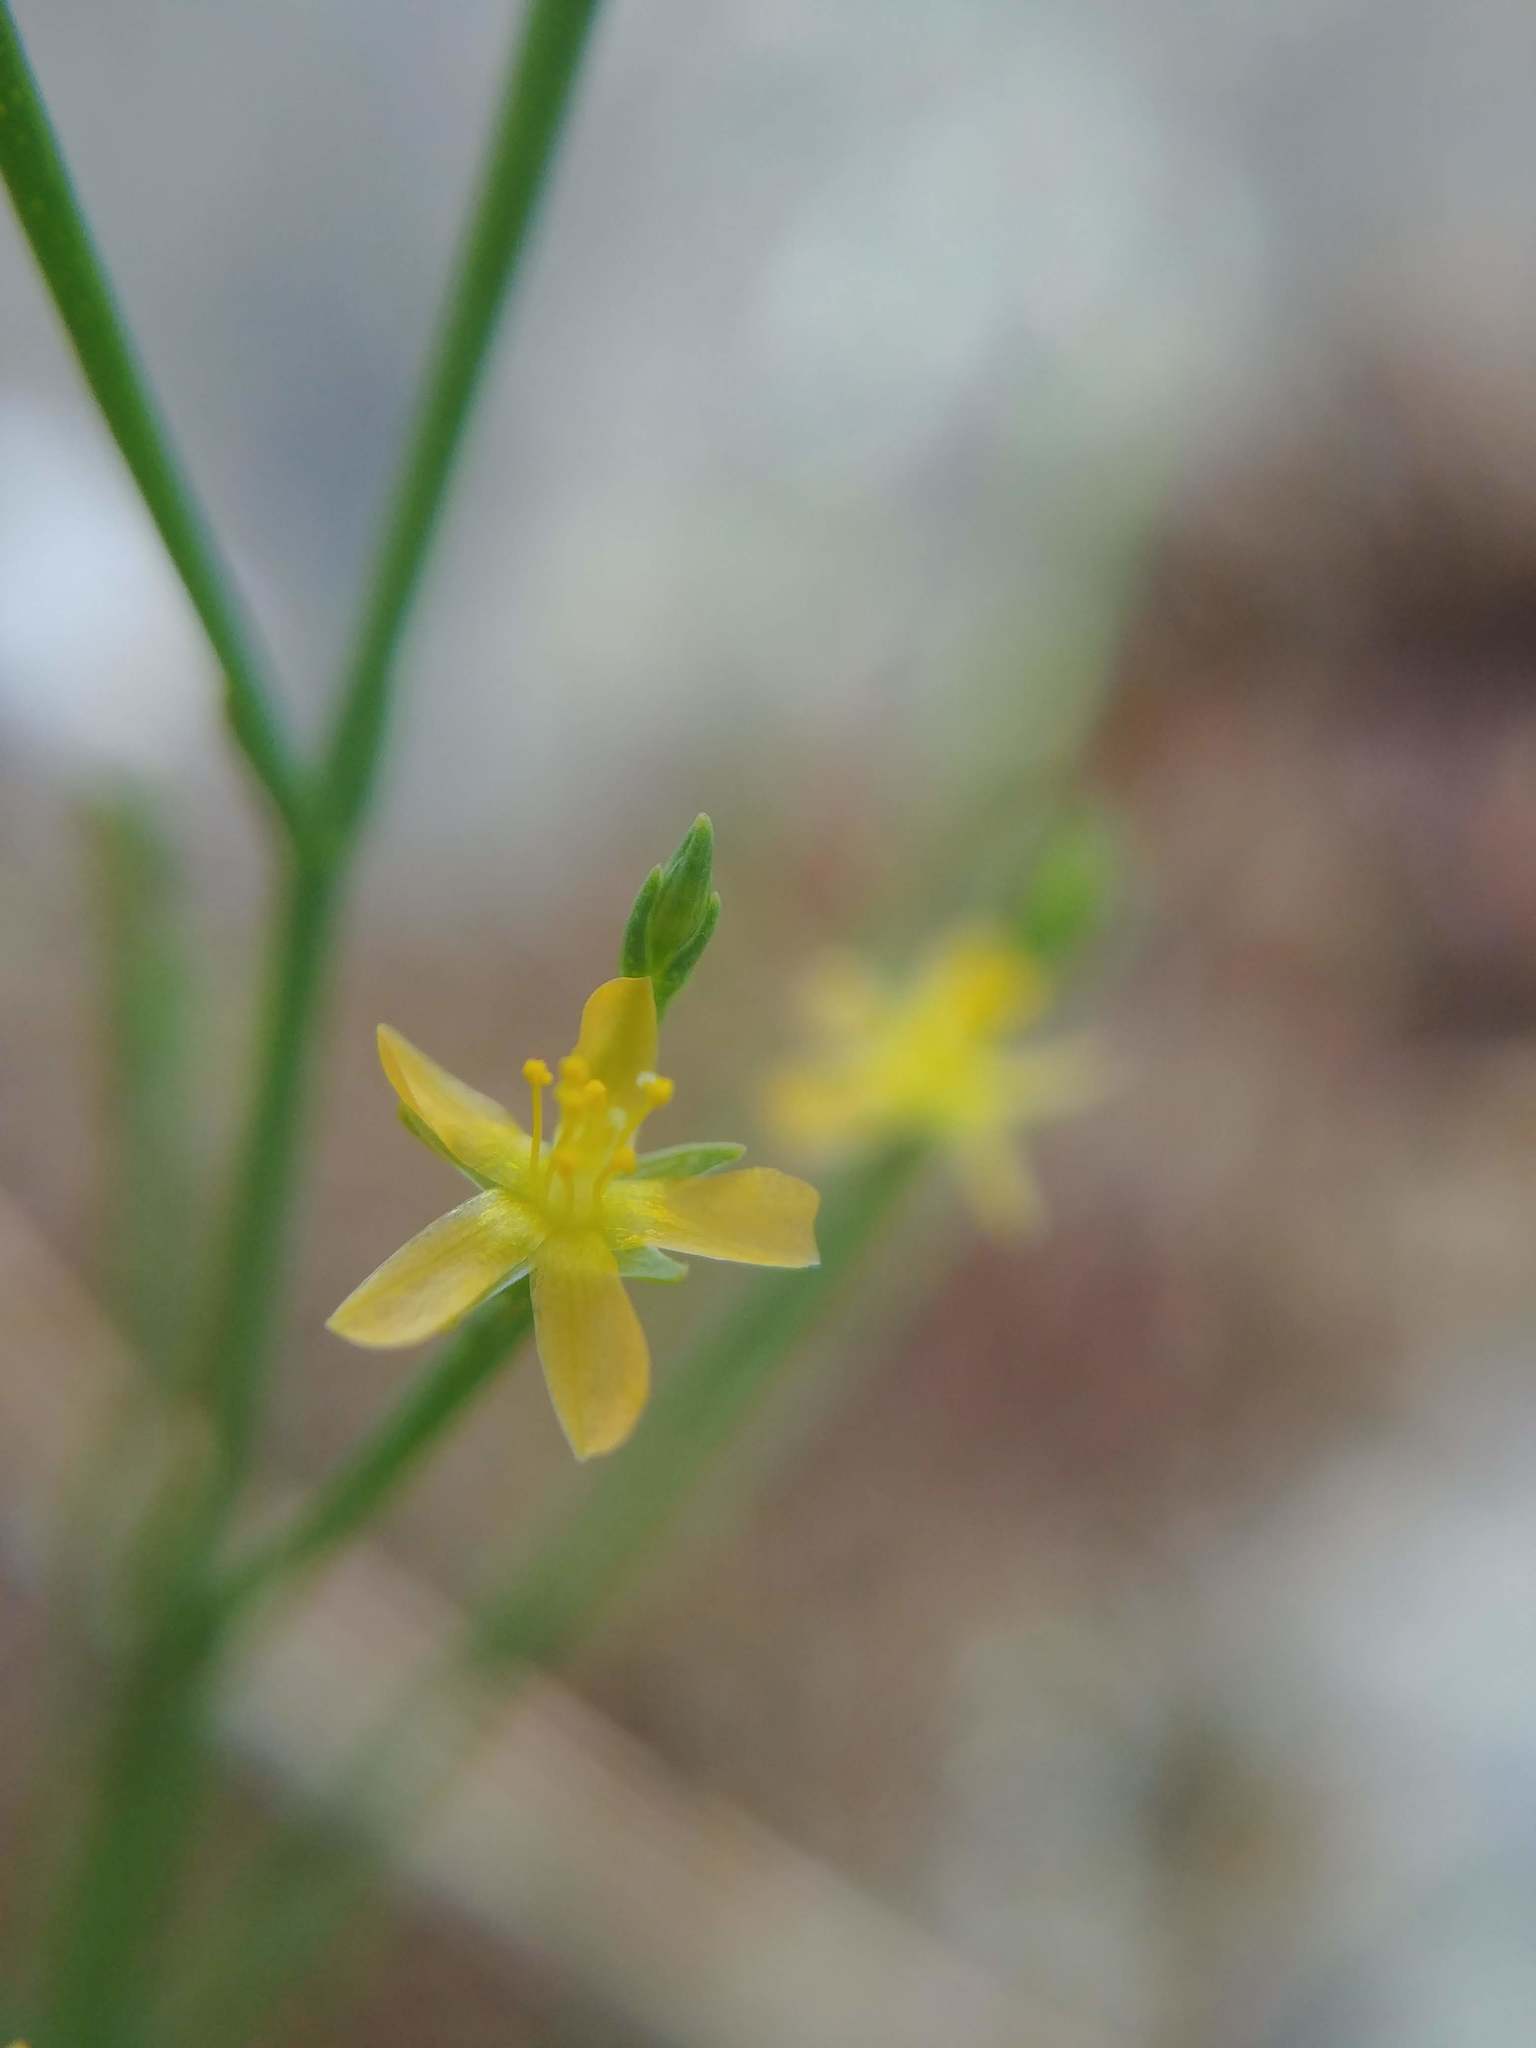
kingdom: Plantae
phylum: Tracheophyta
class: Magnoliopsida
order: Malpighiales
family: Hypericaceae
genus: Hypericum
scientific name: Hypericum gentianoides
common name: Gentian-leaved st. john's-wort
